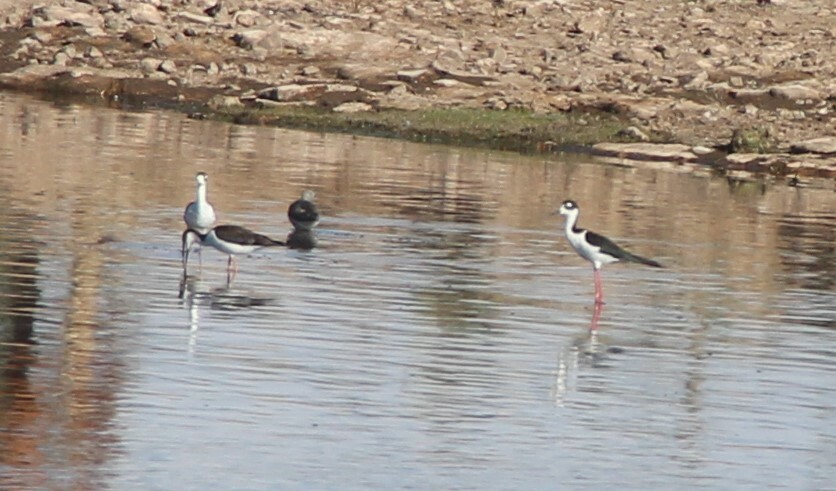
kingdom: Animalia
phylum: Chordata
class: Aves
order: Charadriiformes
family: Recurvirostridae
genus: Himantopus
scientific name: Himantopus mexicanus
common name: Black-necked stilt
